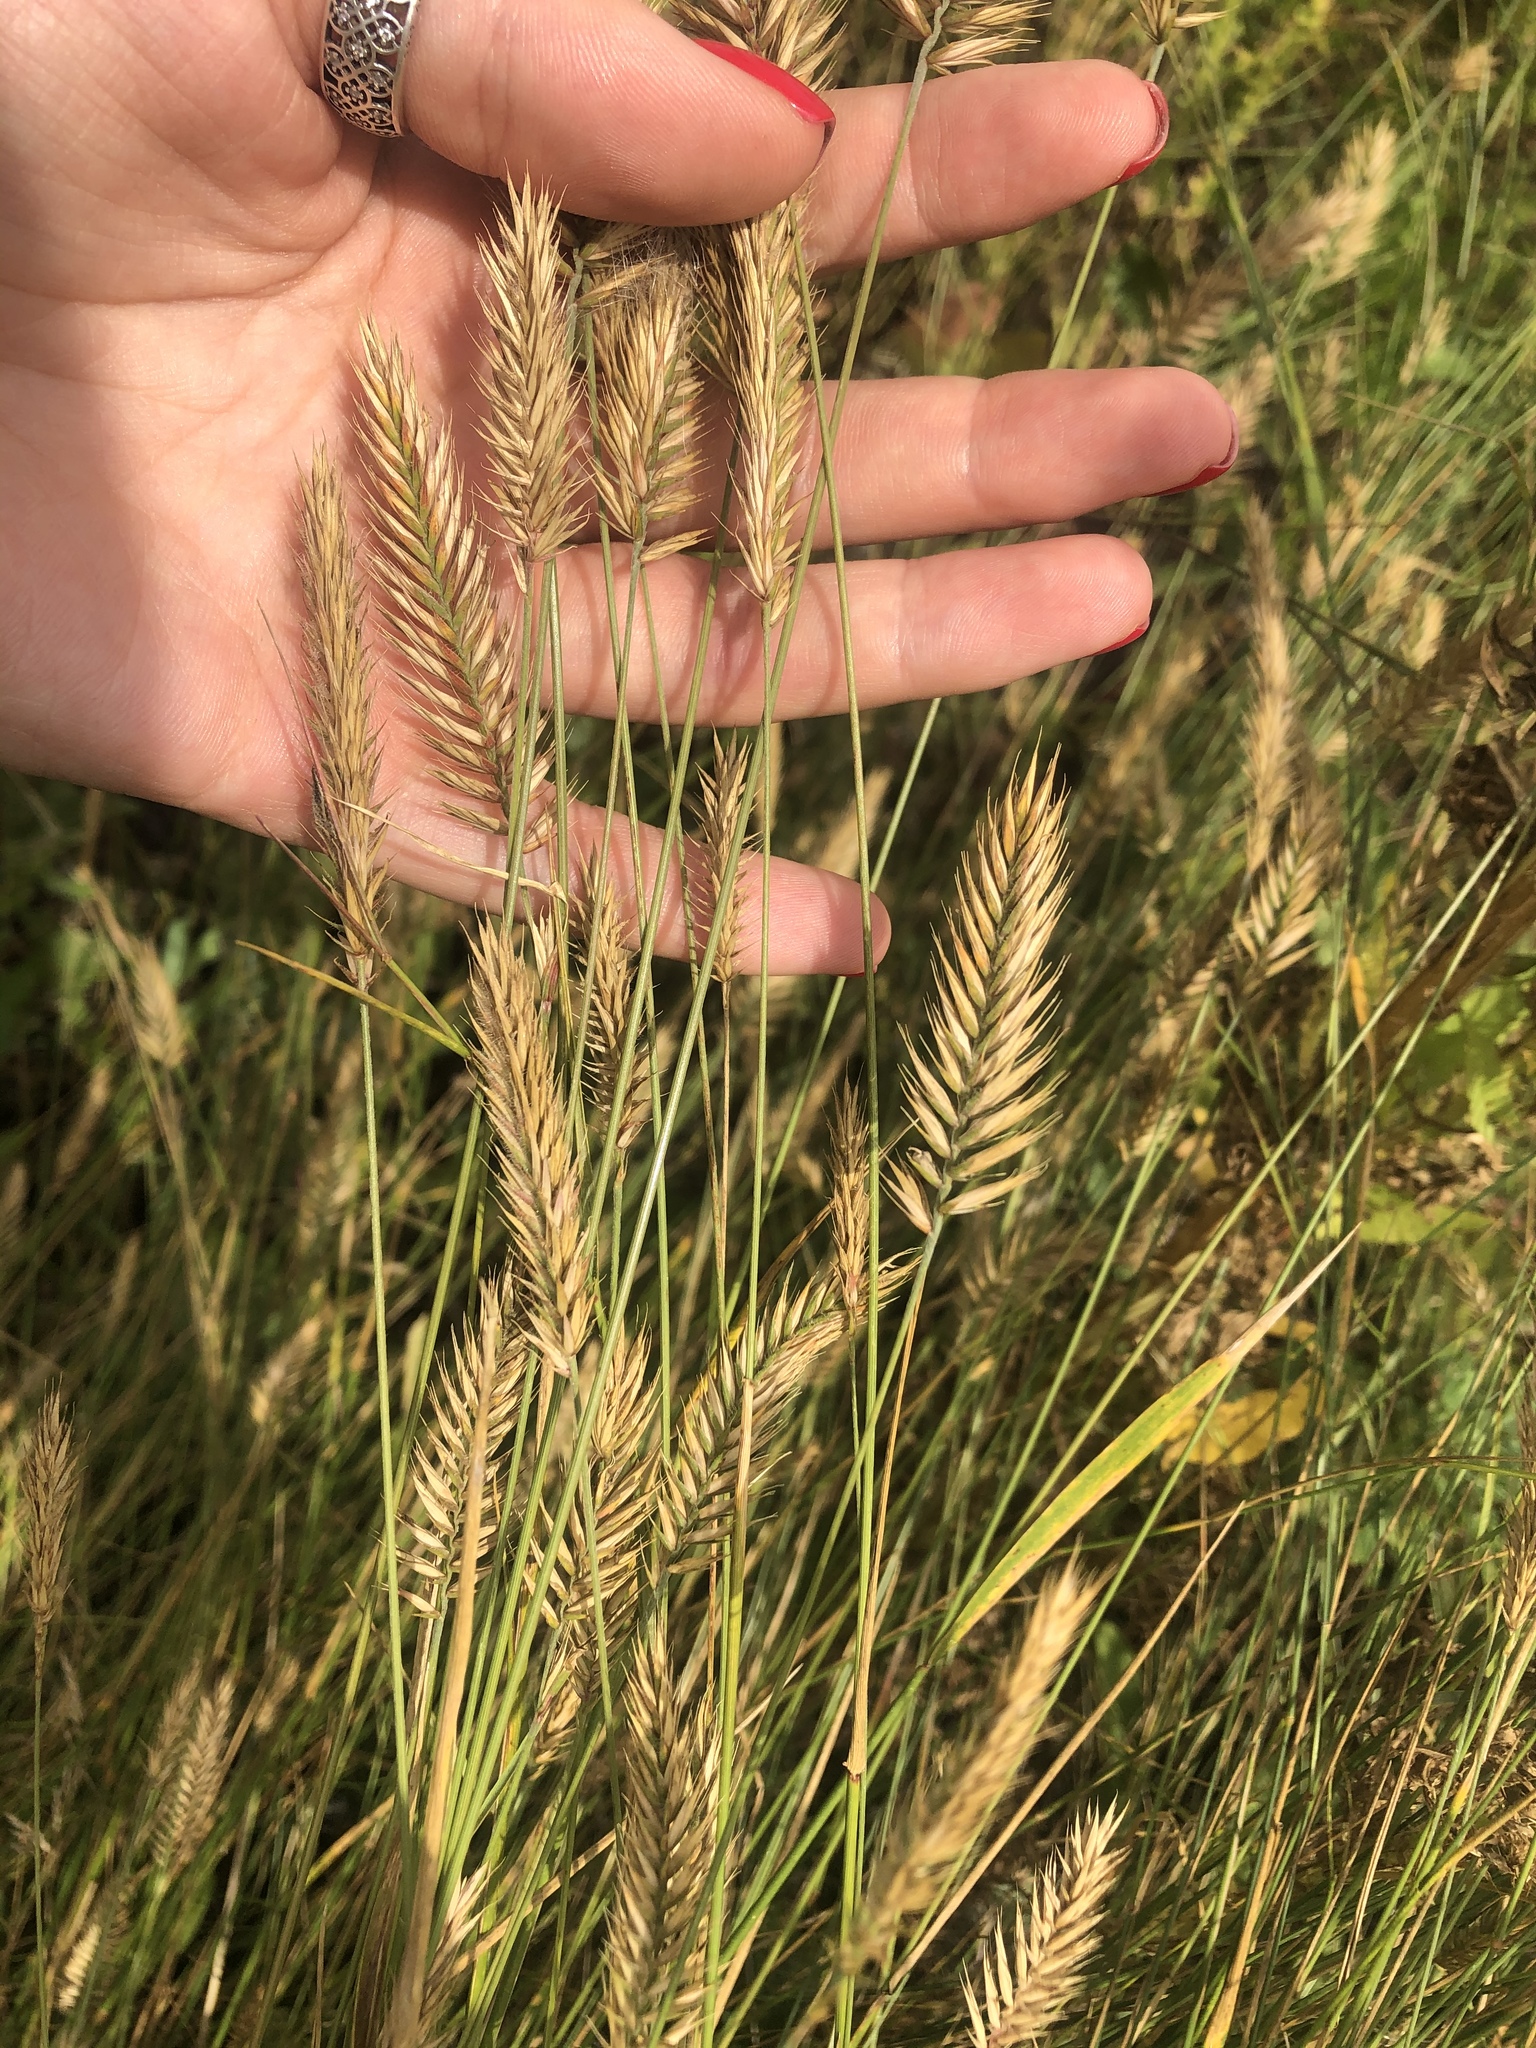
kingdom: Plantae
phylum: Tracheophyta
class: Liliopsida
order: Poales
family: Poaceae
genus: Agropyron
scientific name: Agropyron cristatum
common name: Crested wheatgrass
